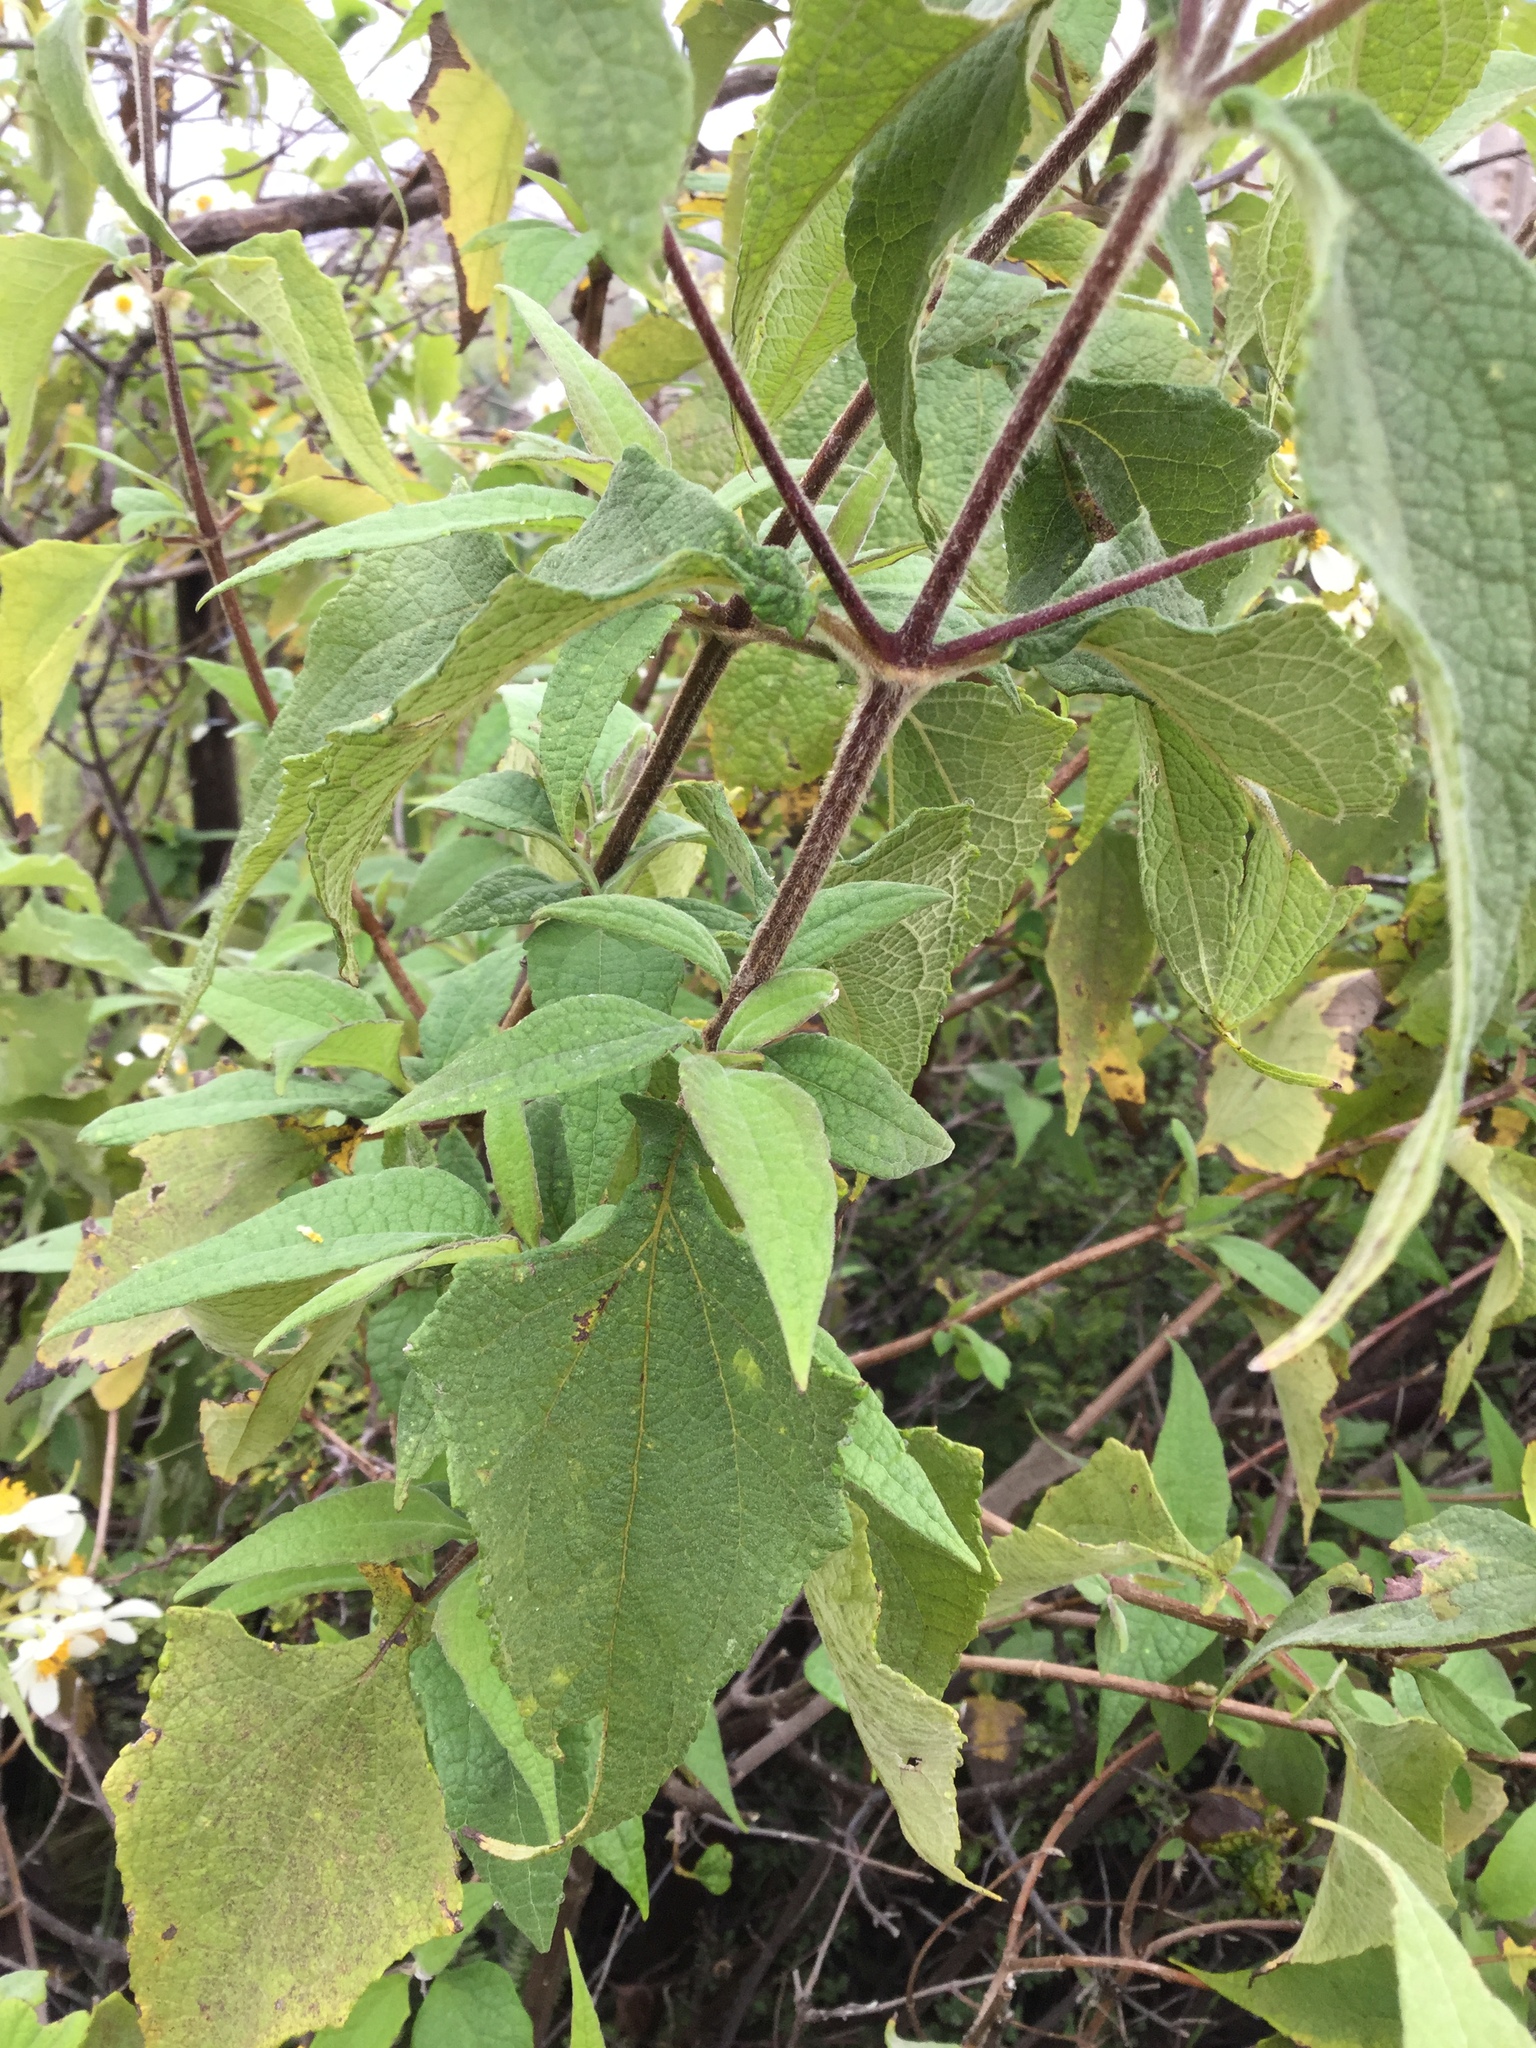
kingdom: Plantae
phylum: Tracheophyta
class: Magnoliopsida
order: Asterales
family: Asteraceae
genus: Montanoa
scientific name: Montanoa leucantha
